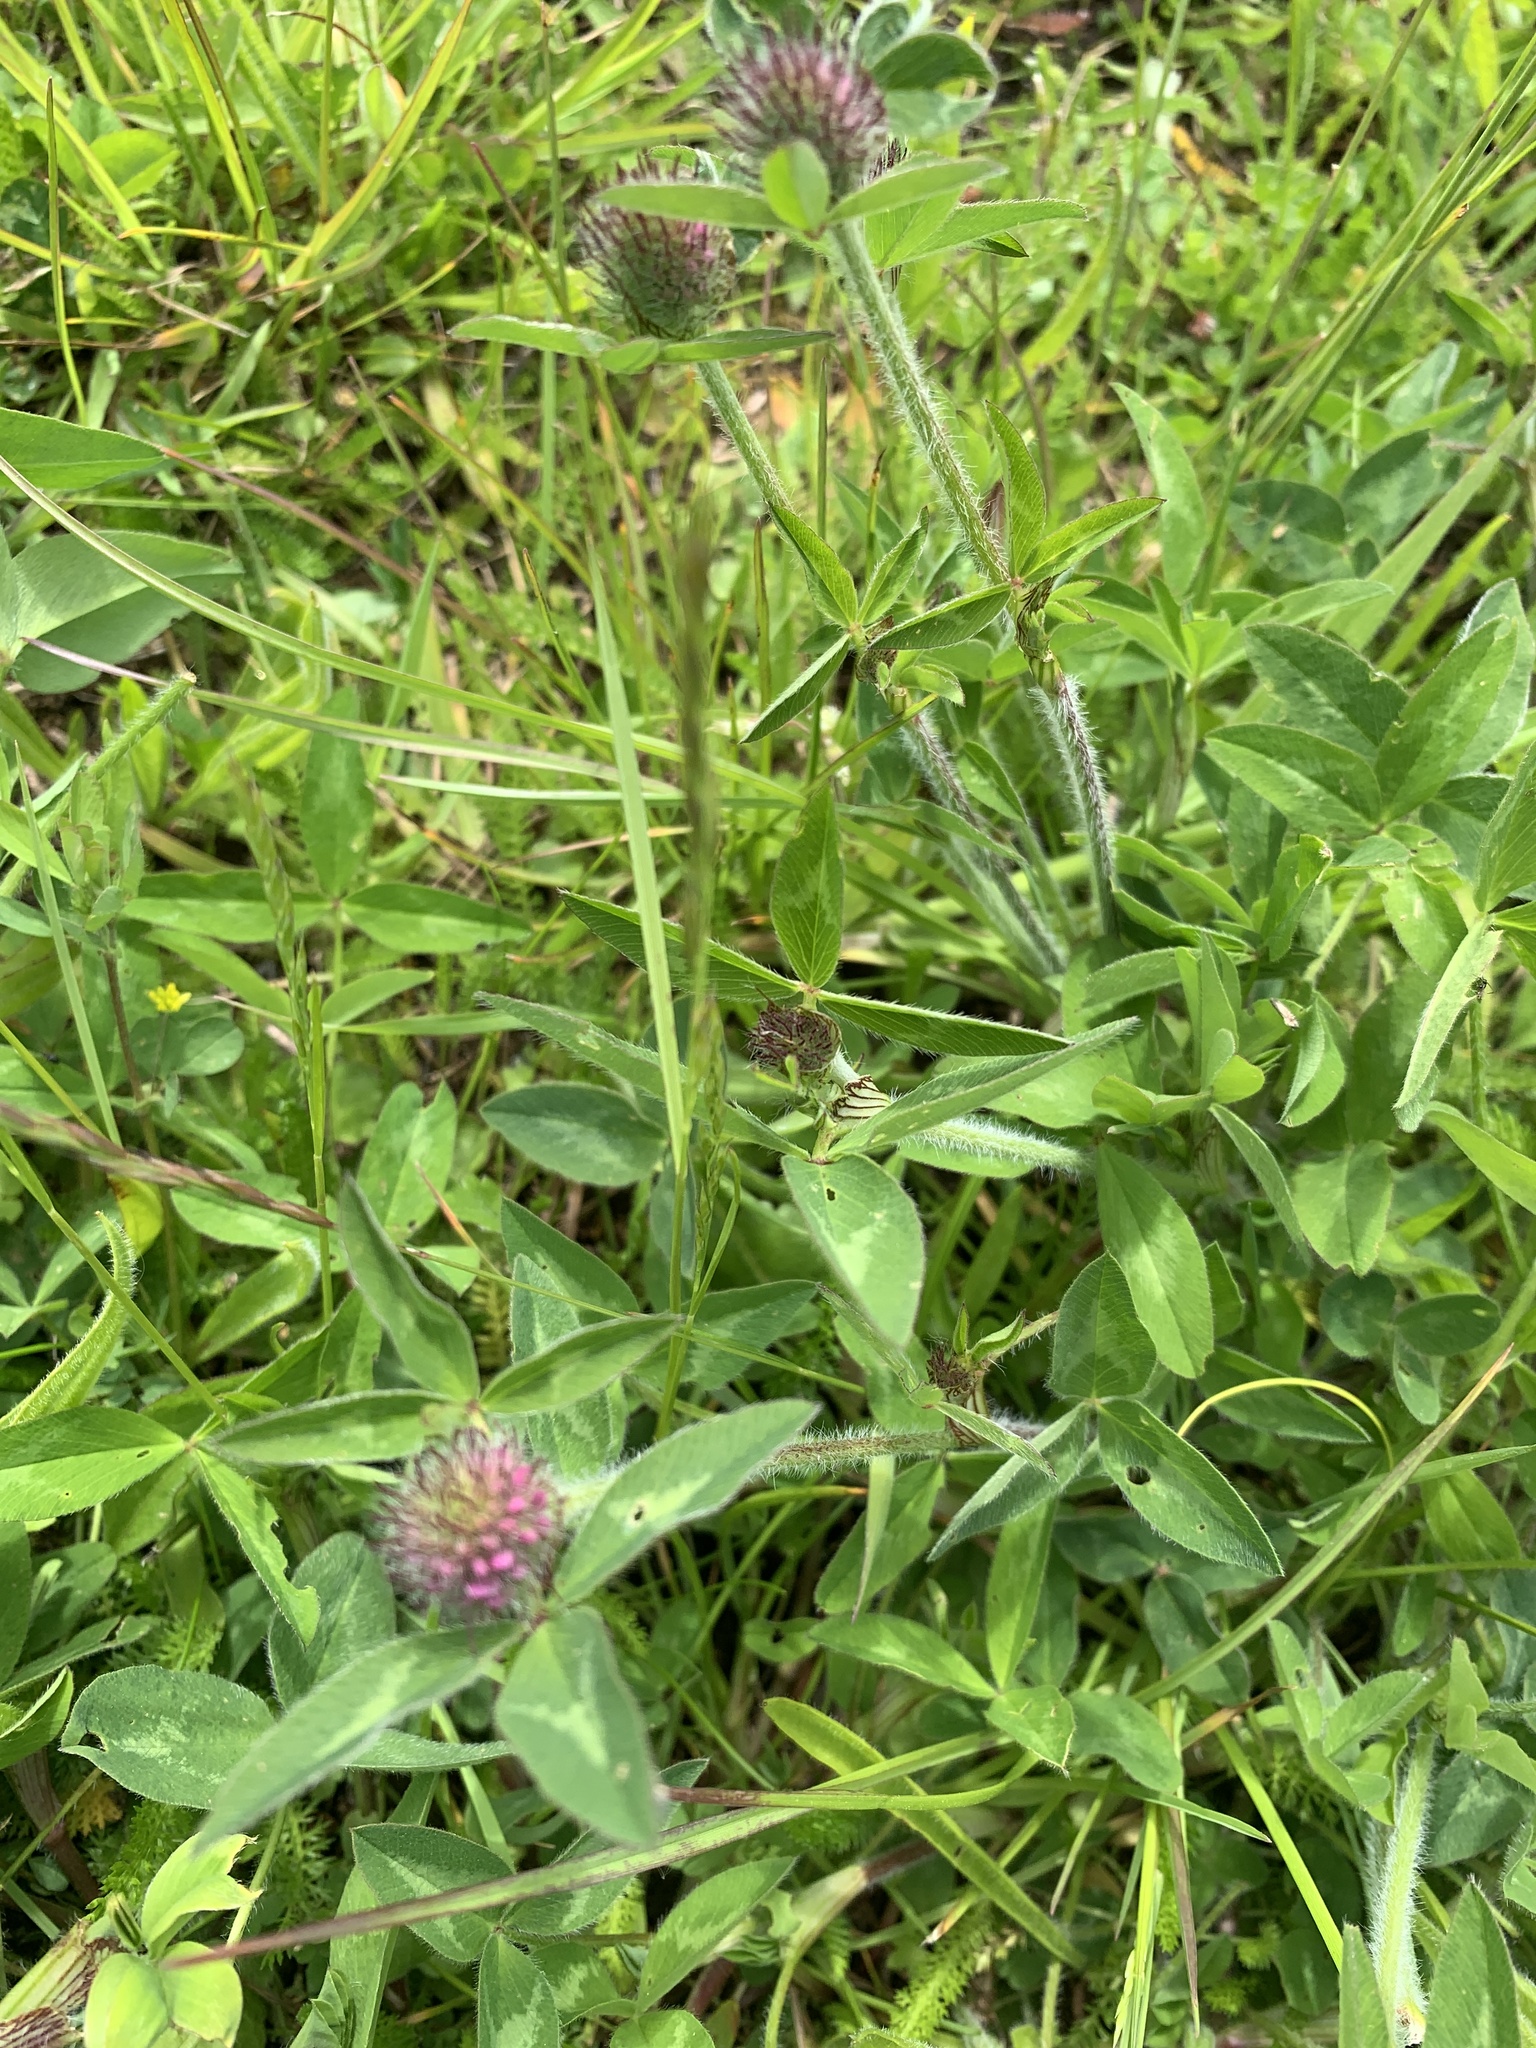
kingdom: Plantae
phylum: Tracheophyta
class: Magnoliopsida
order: Fabales
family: Fabaceae
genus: Trifolium
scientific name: Trifolium pratense
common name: Red clover
